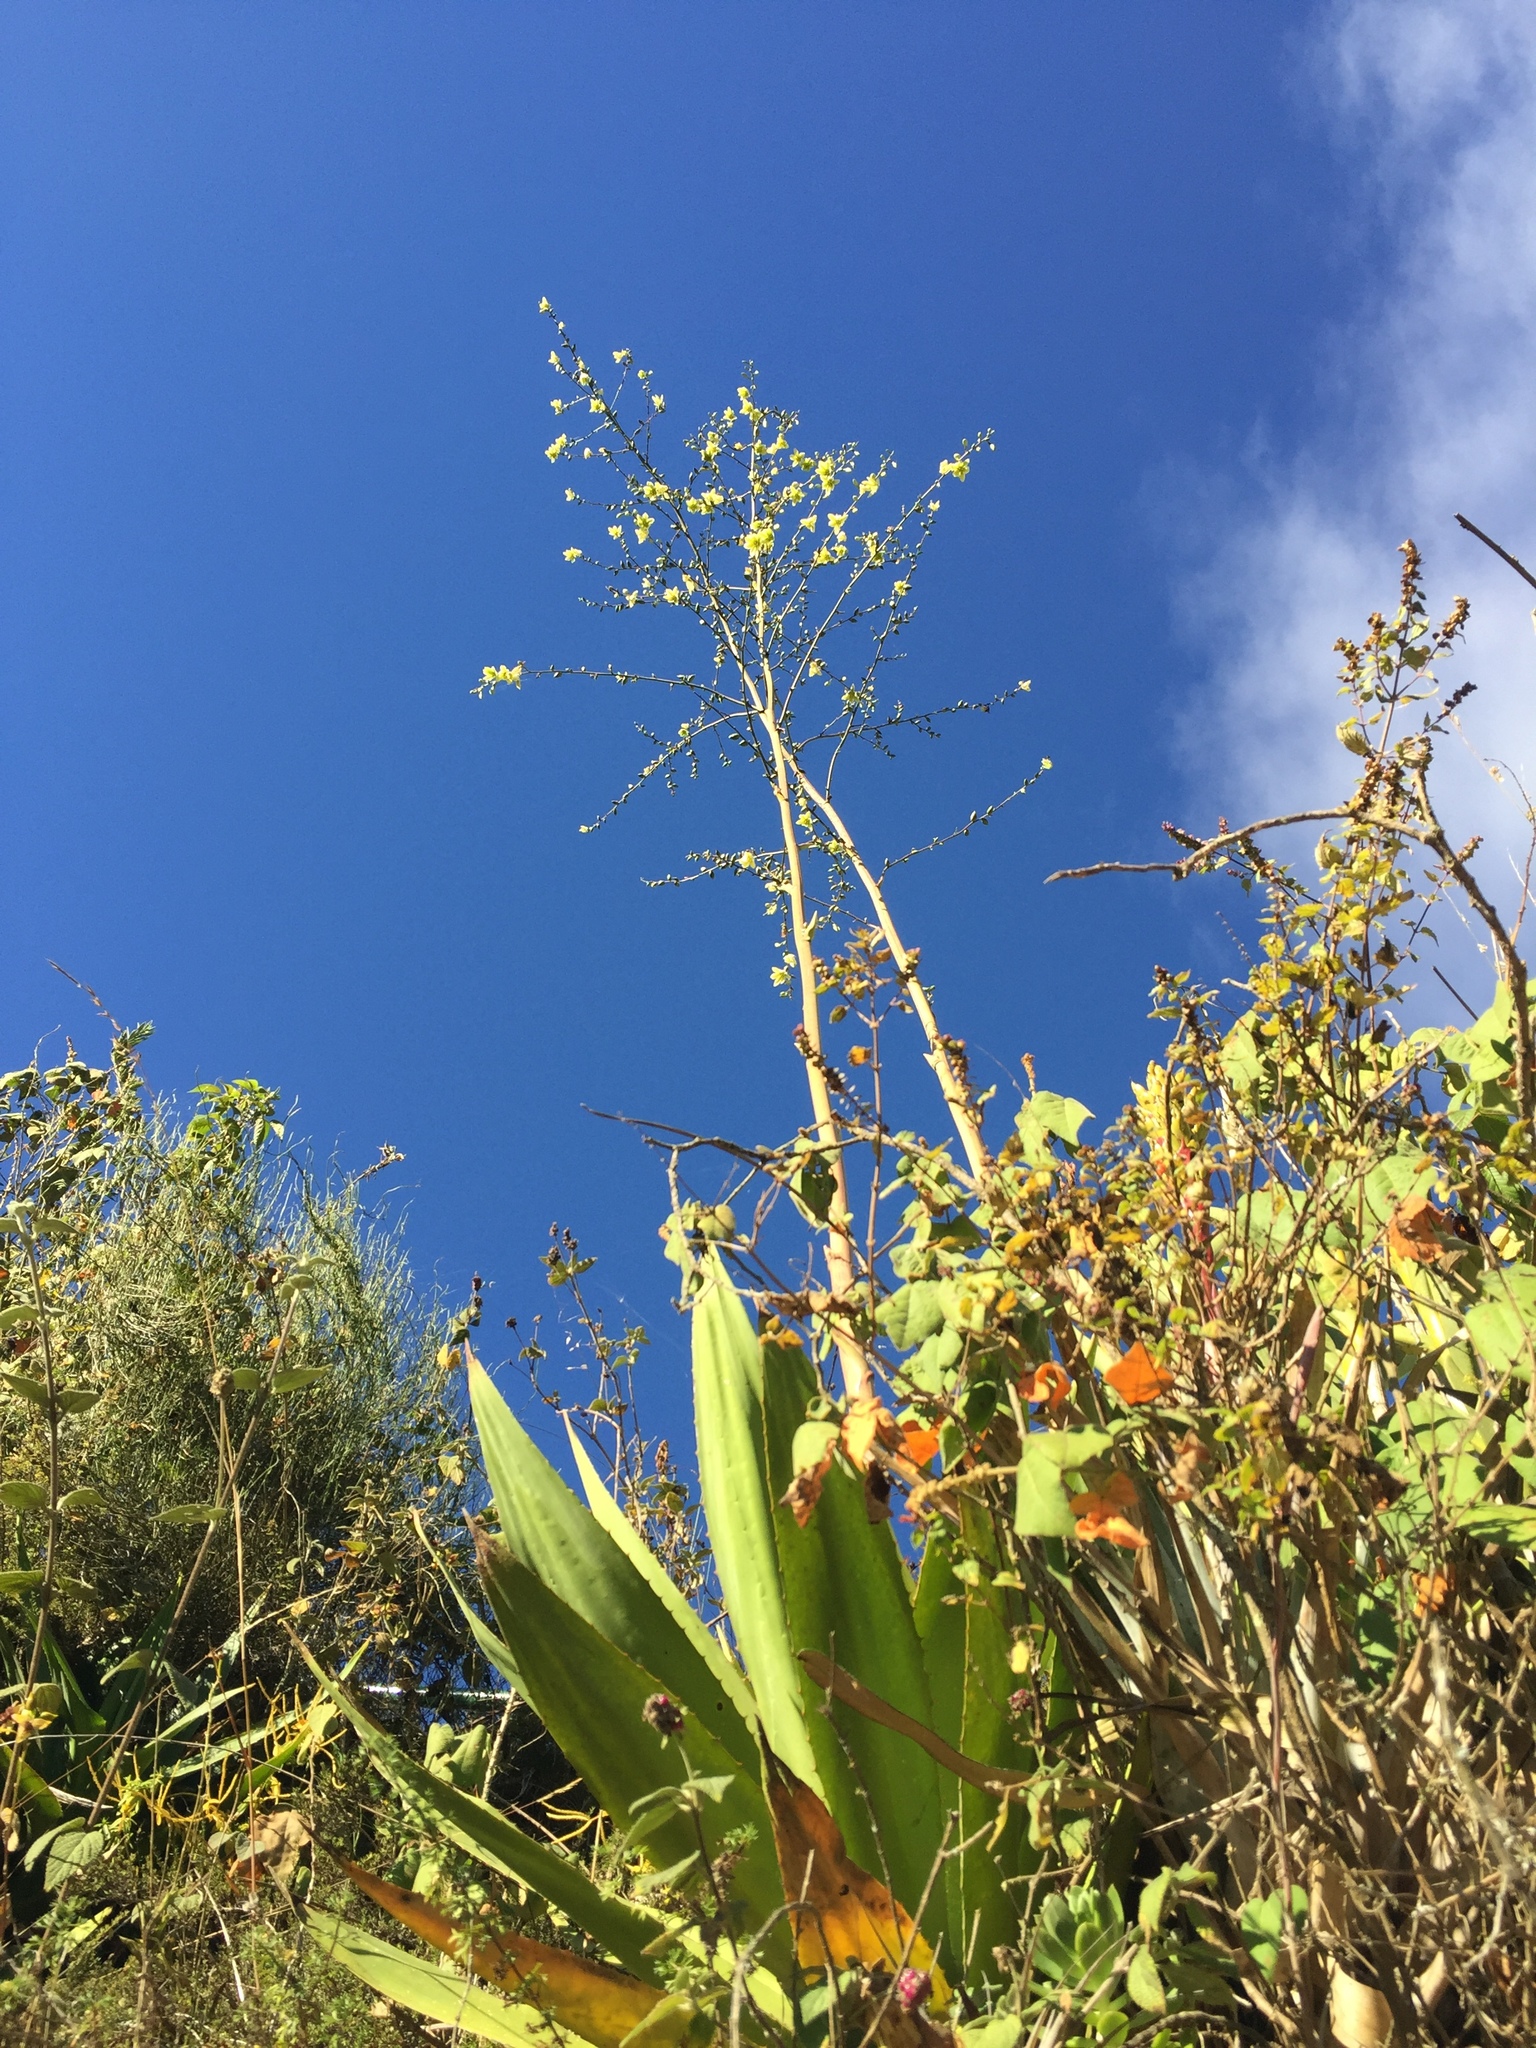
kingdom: Plantae
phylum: Tracheophyta
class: Liliopsida
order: Asparagales
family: Asparagaceae
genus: Furcraea
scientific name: Furcraea andina
